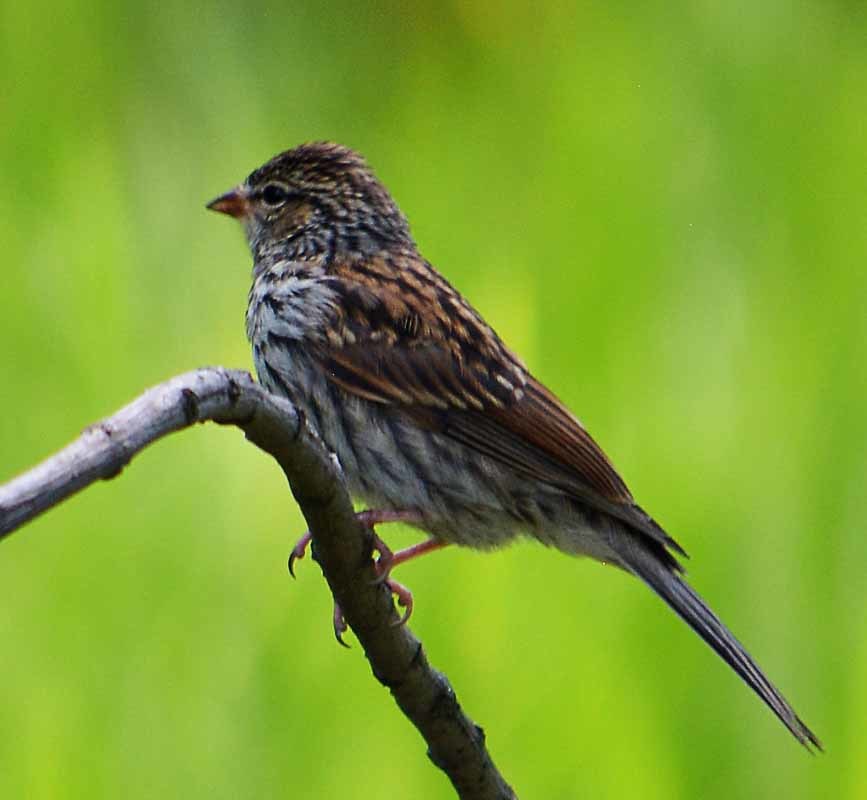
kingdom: Animalia
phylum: Chordata
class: Aves
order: Passeriformes
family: Passerellidae
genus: Spizella
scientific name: Spizella passerina
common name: Chipping sparrow
